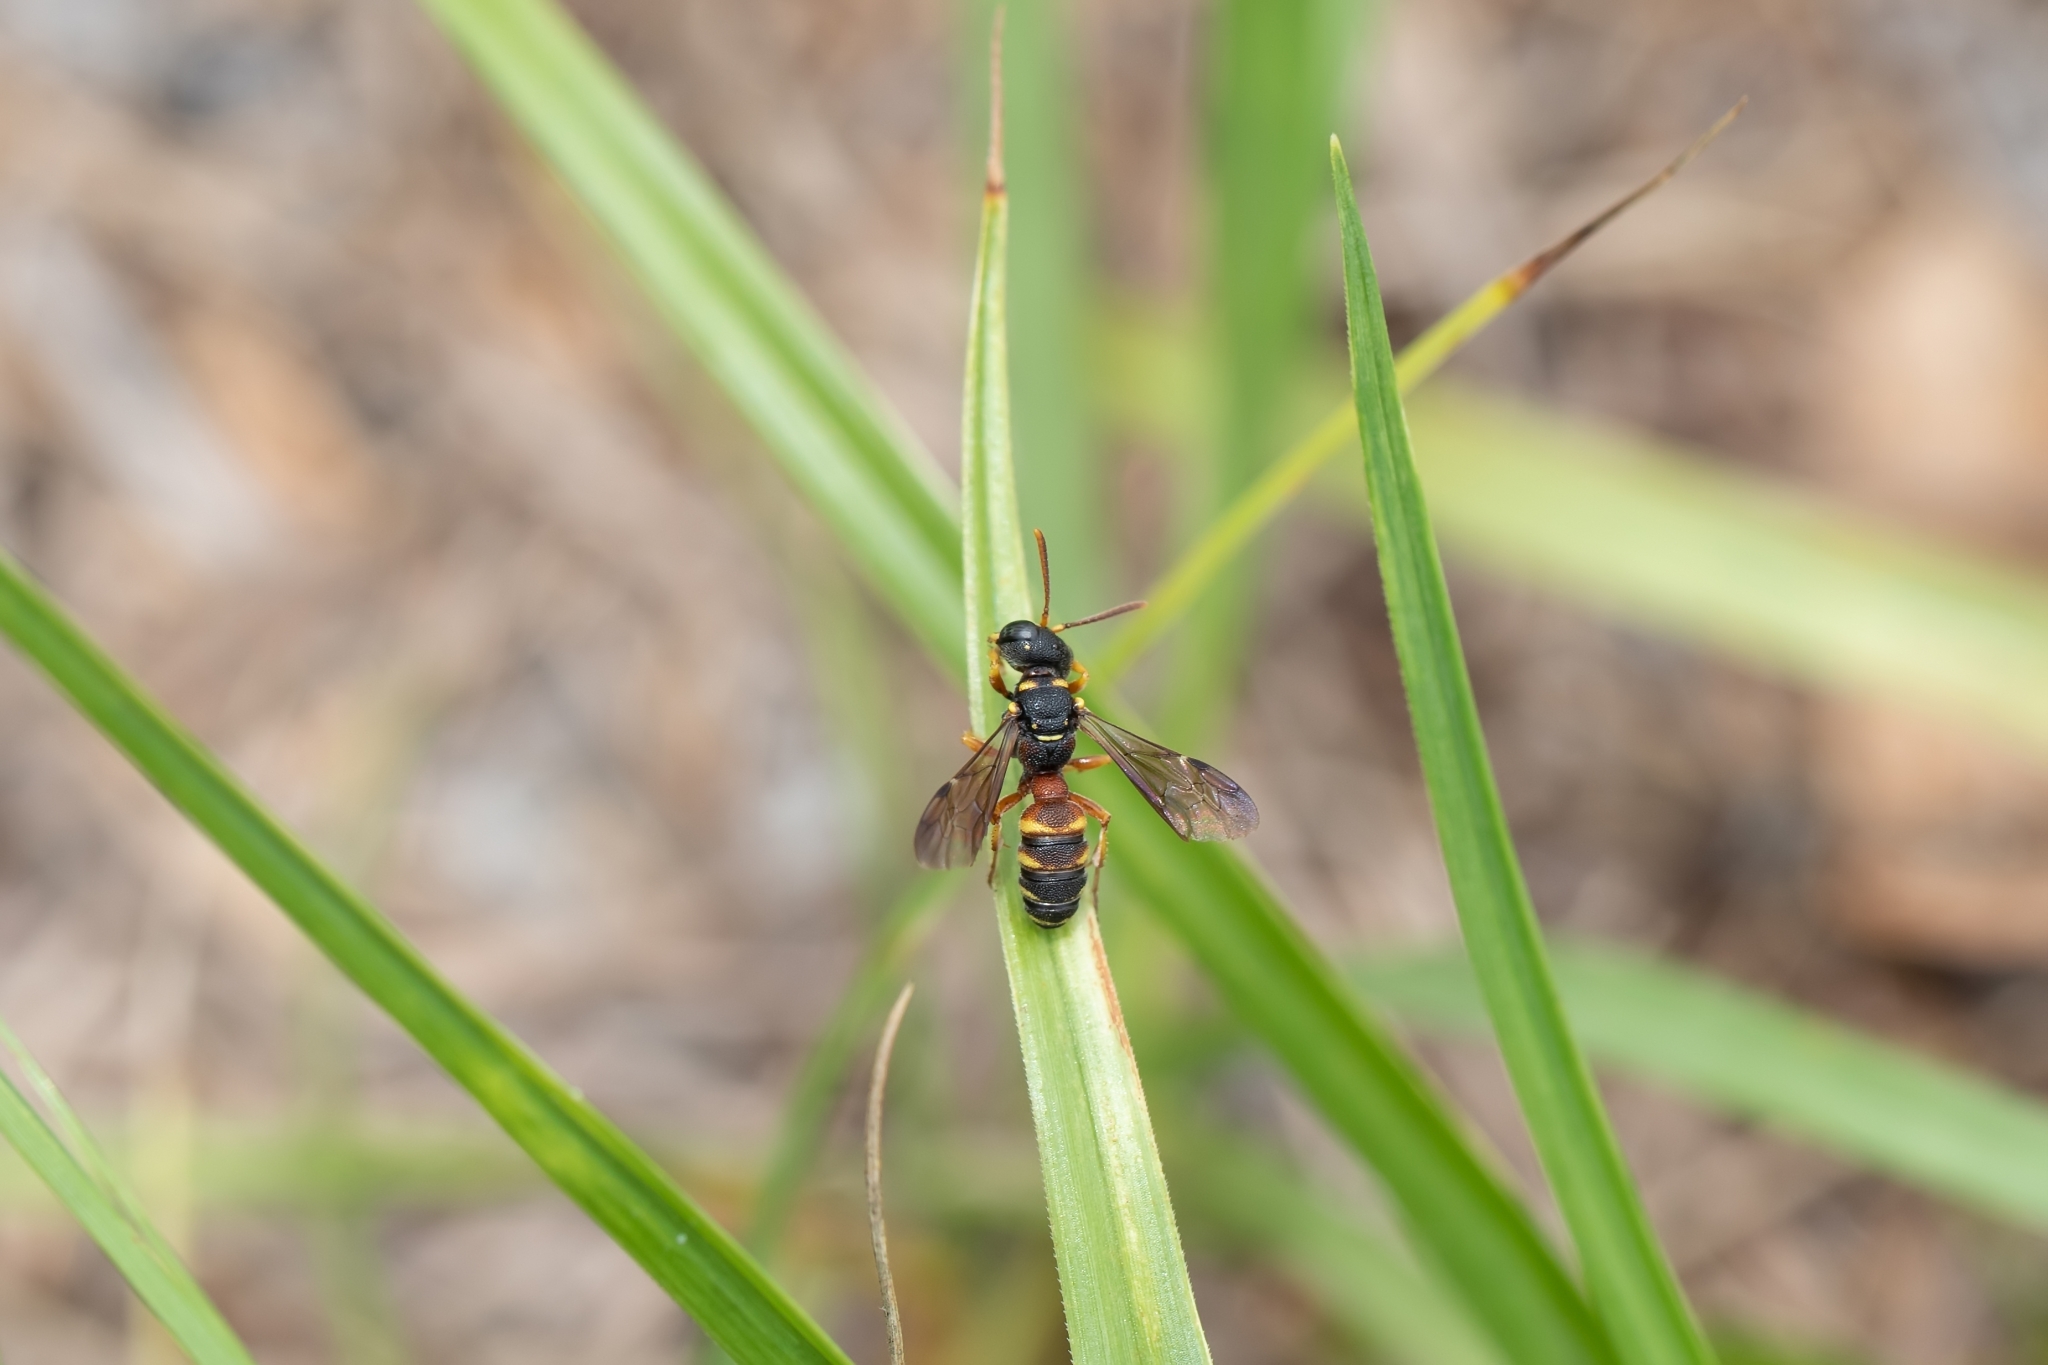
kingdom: Animalia
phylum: Arthropoda
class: Insecta
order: Hymenoptera
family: Crabronidae
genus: Cerceris
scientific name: Cerceris blakei
